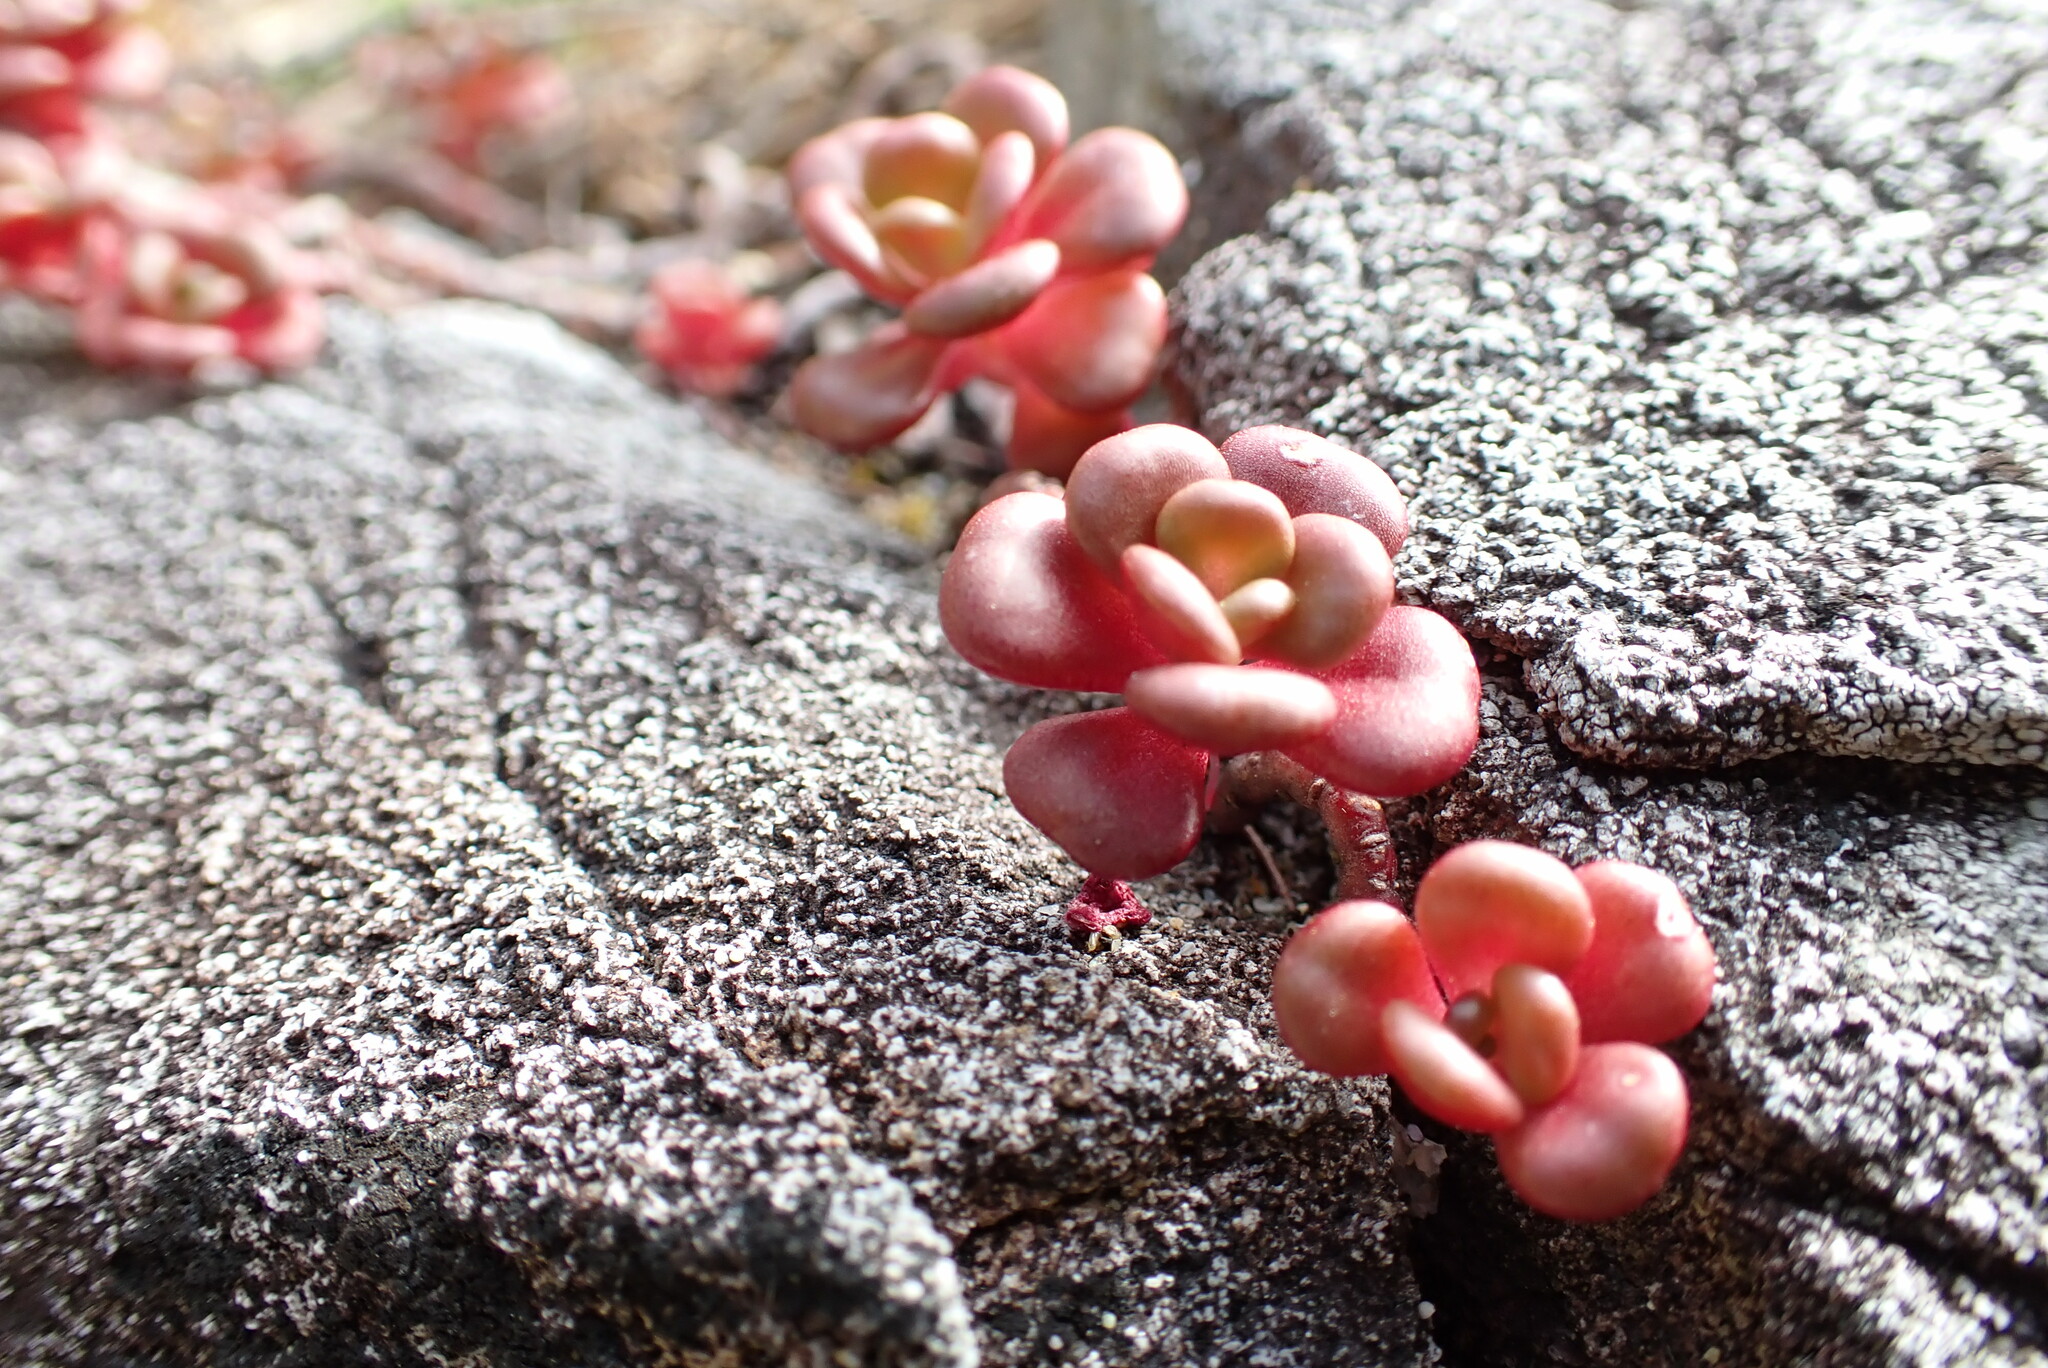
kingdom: Plantae
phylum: Tracheophyta
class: Magnoliopsida
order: Saxifragales
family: Crassulaceae
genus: Sedum
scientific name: Sedum oreganum
